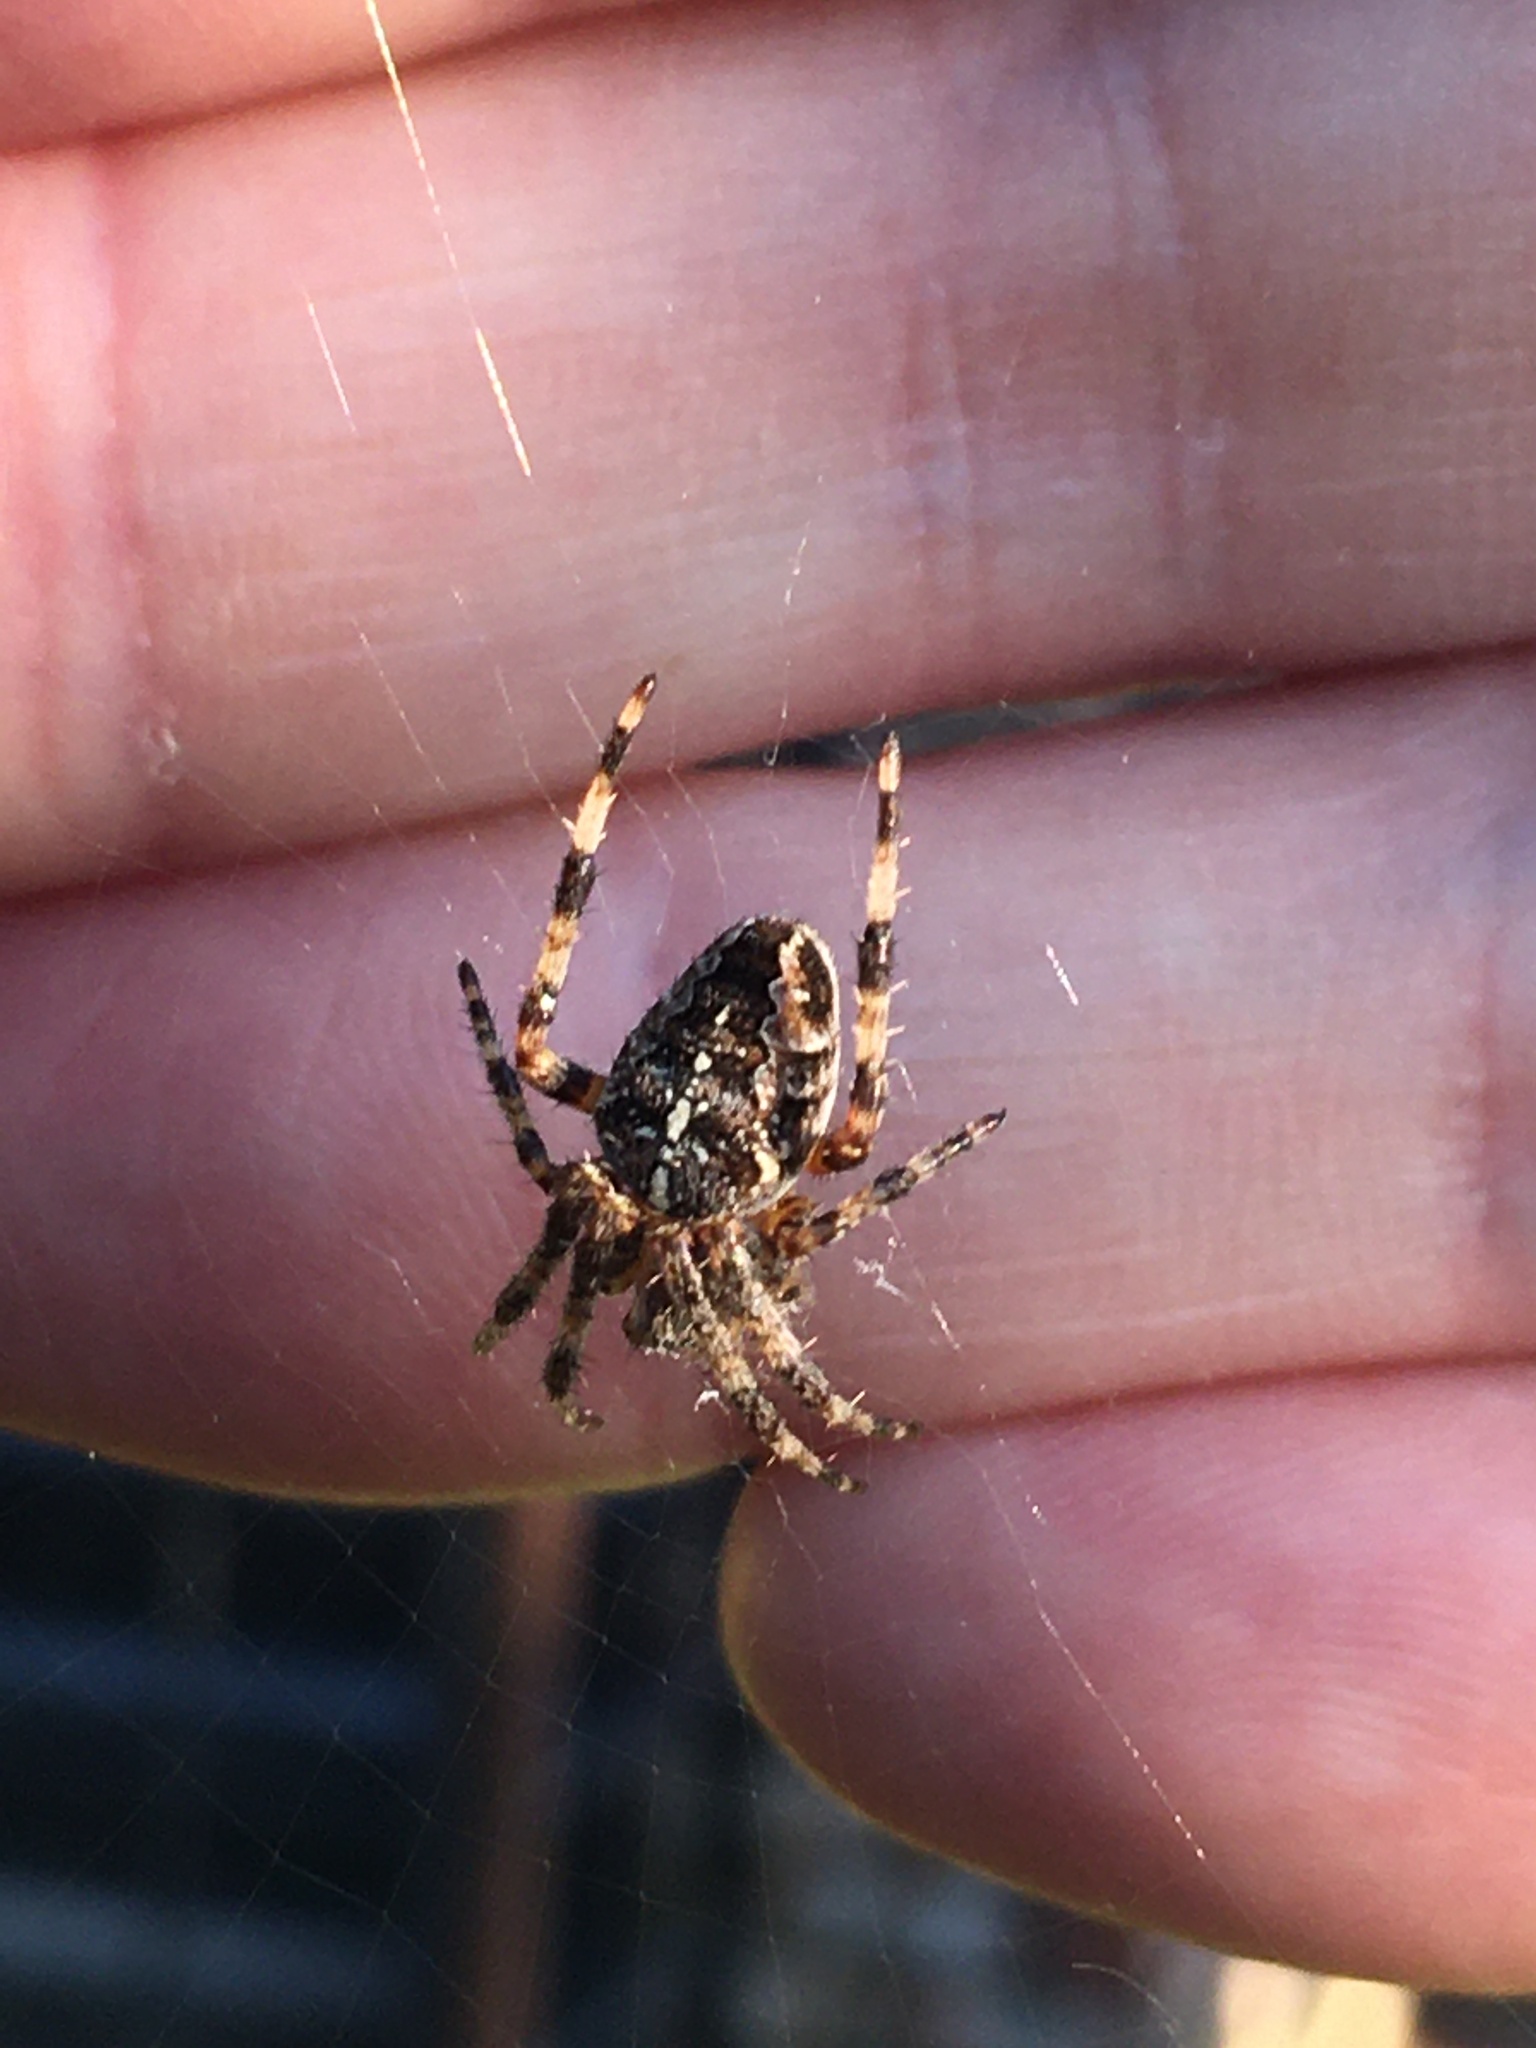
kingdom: Animalia
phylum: Arthropoda
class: Arachnida
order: Araneae
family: Araneidae
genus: Araneus
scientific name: Araneus diadematus
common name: Cross orbweaver
